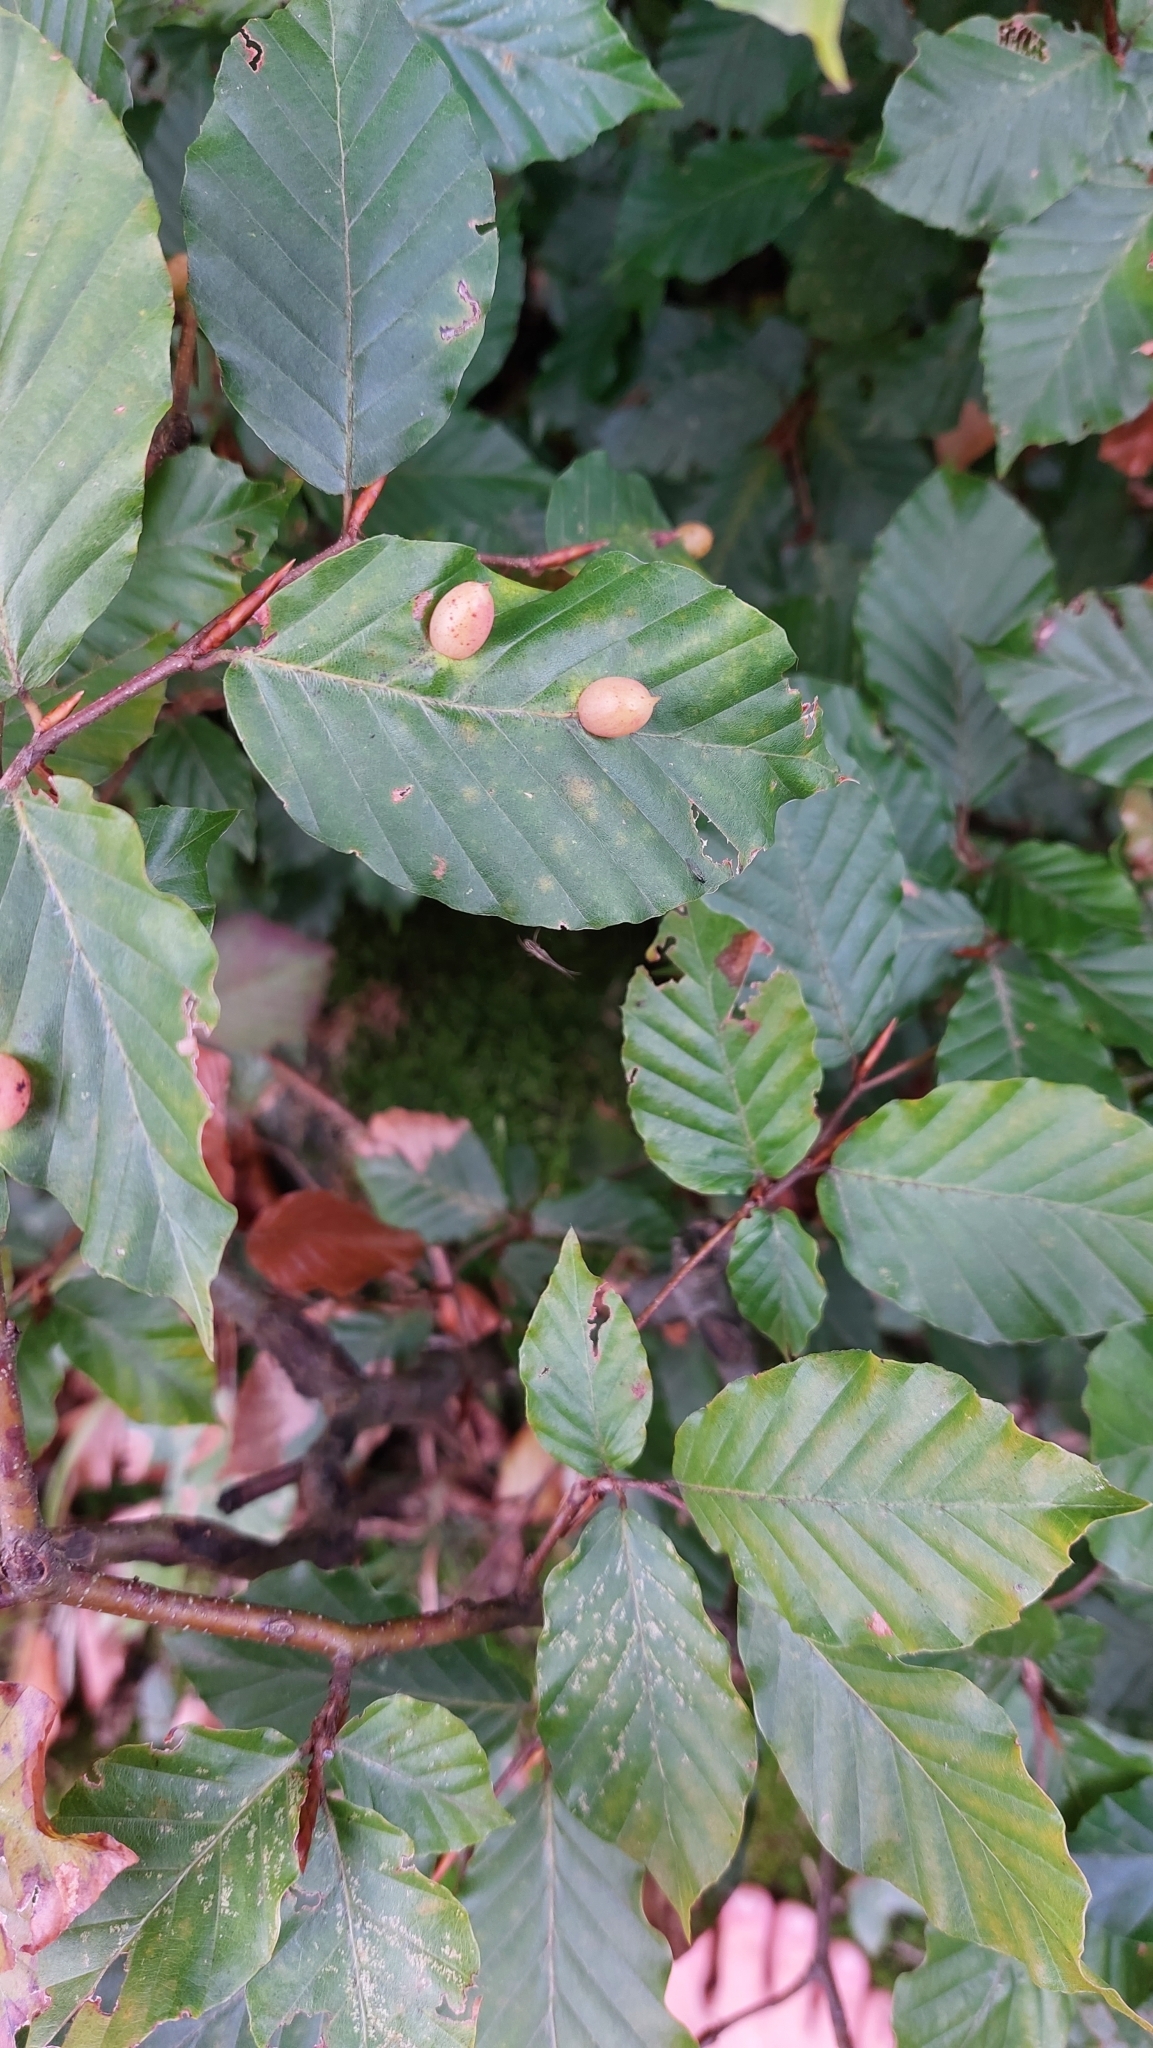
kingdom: Animalia
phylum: Arthropoda
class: Insecta
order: Diptera
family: Cecidomyiidae
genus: Mikiola
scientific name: Mikiola fagi
